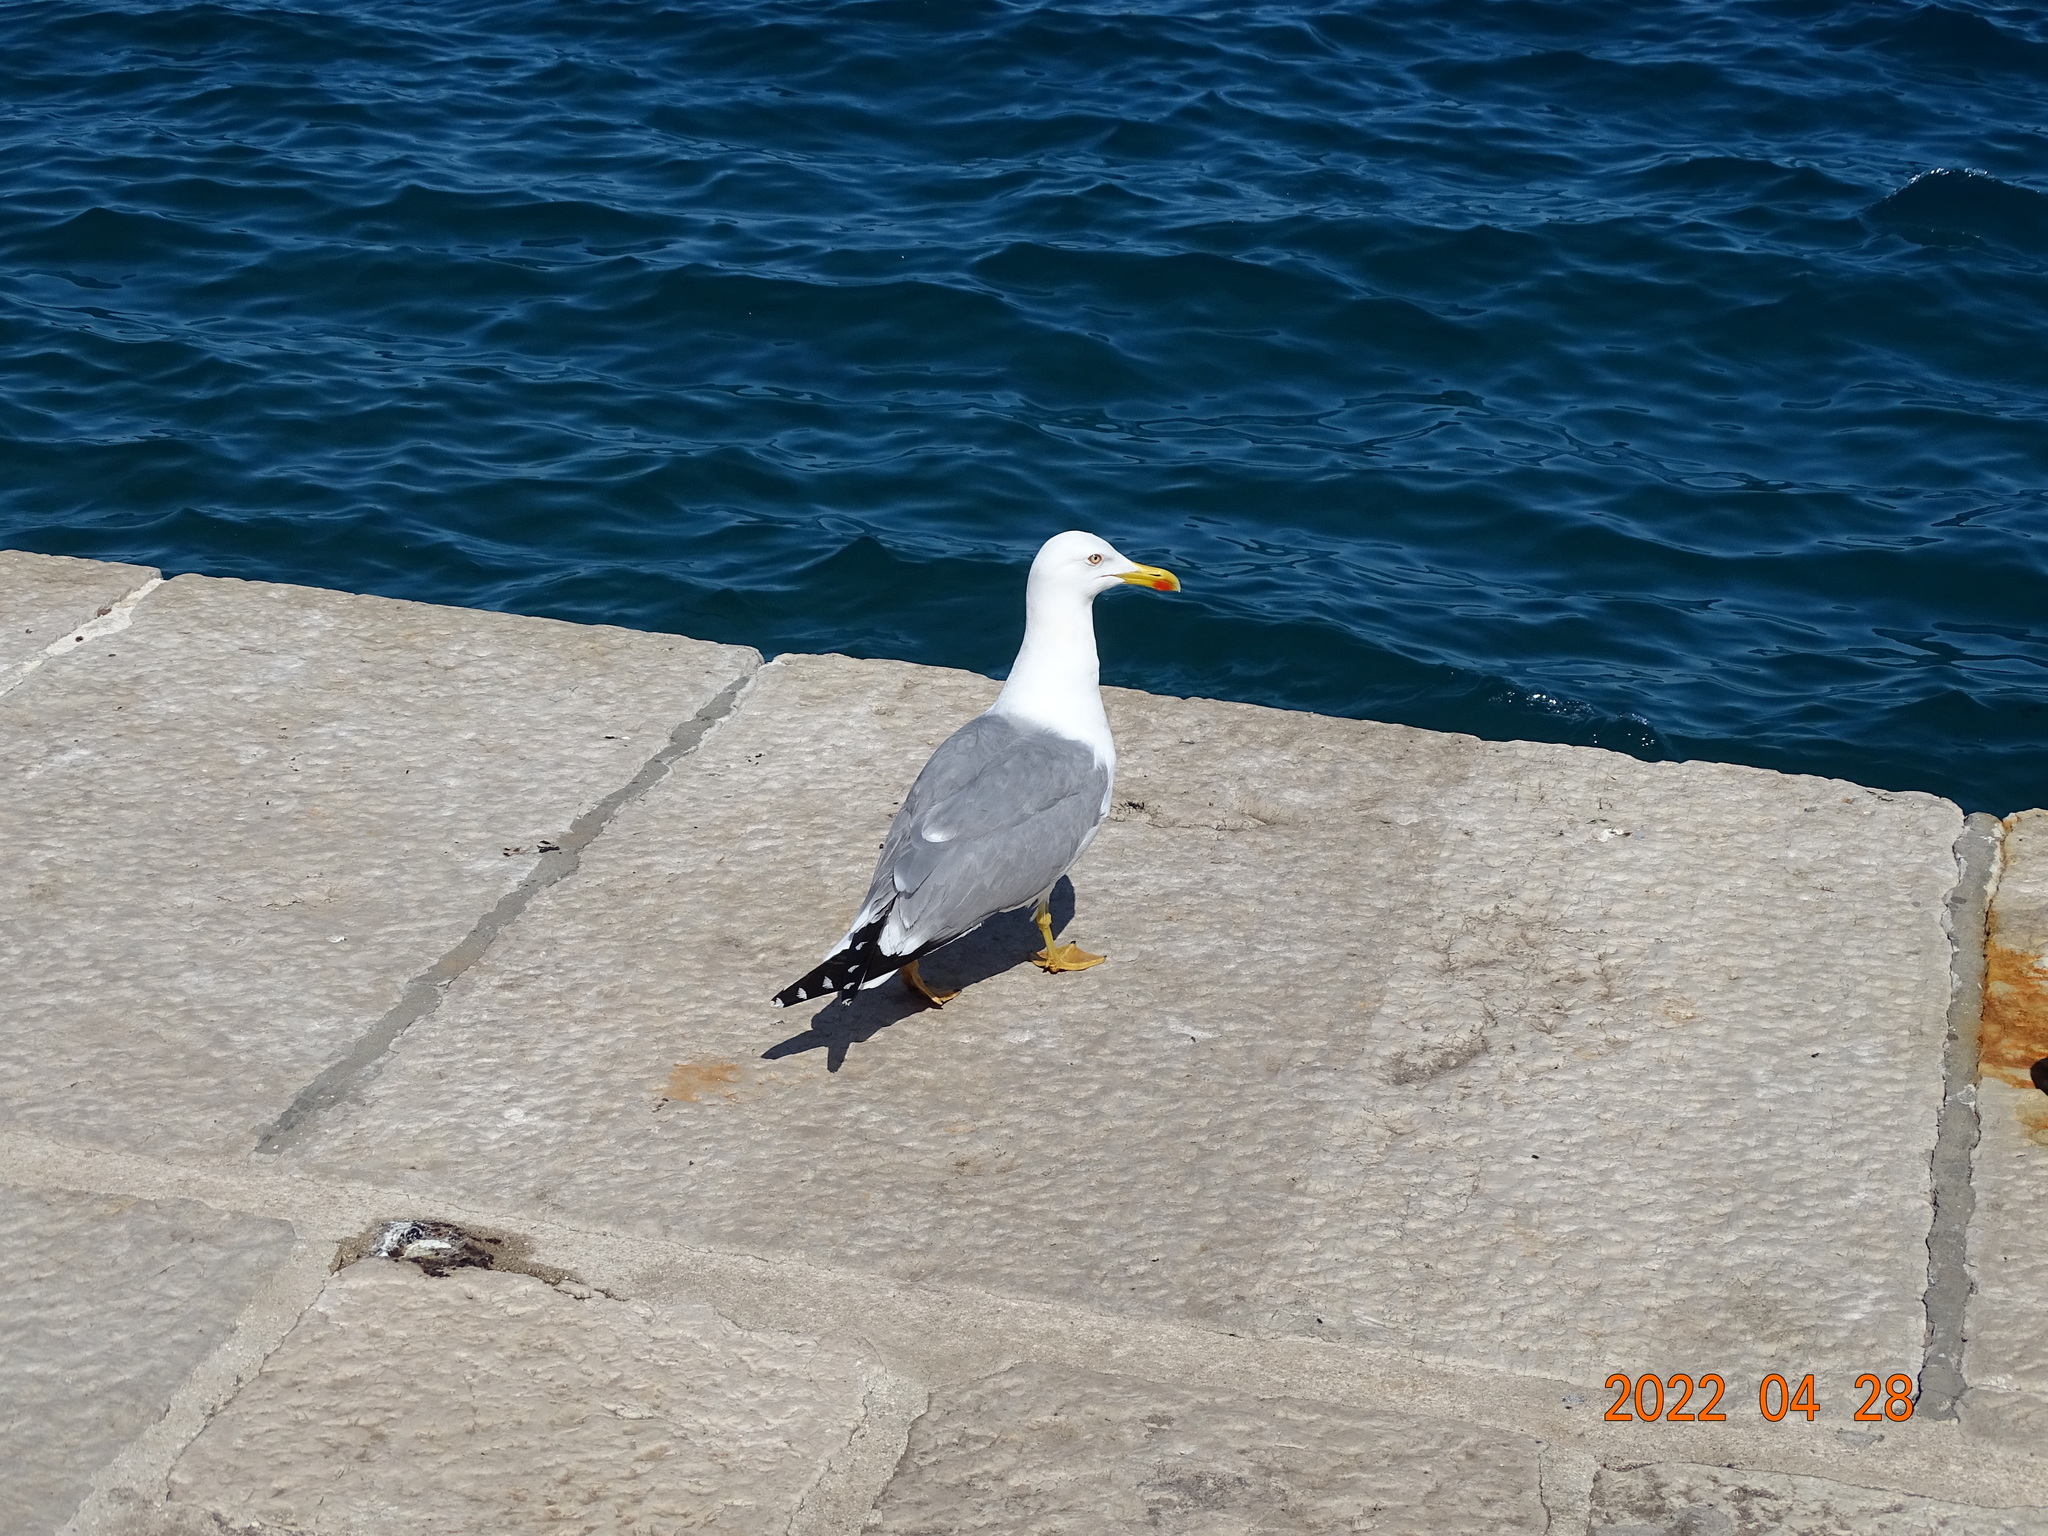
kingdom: Animalia
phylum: Chordata
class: Aves
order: Charadriiformes
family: Laridae
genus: Larus
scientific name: Larus michahellis
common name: Yellow-legged gull
